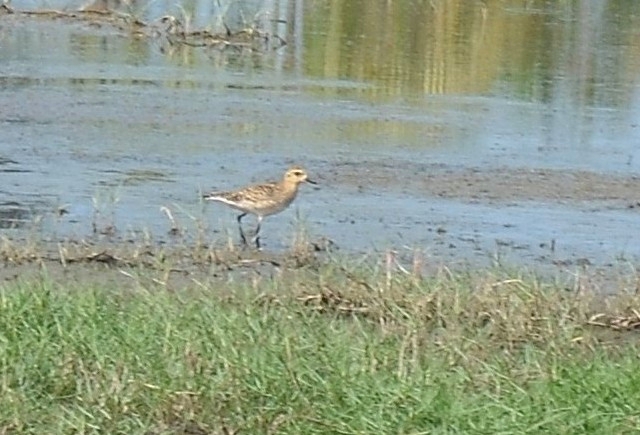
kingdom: Animalia
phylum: Chordata
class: Aves
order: Charadriiformes
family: Charadriidae
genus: Pluvialis
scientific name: Pluvialis fulva
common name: Pacific golden plover
